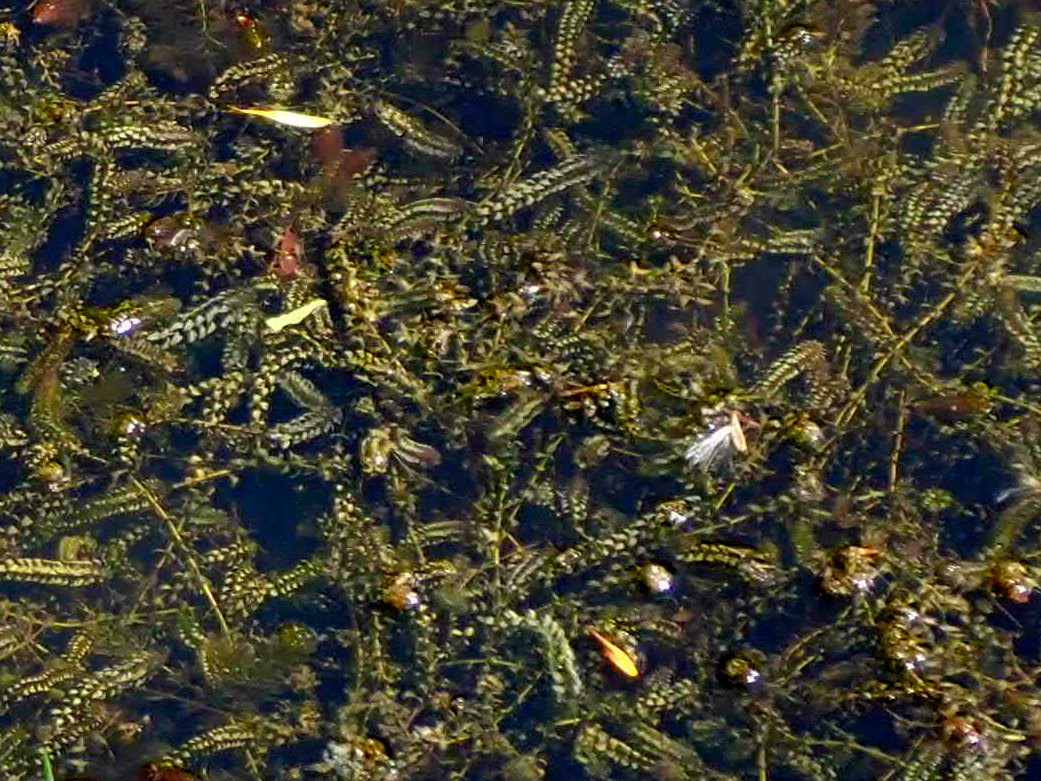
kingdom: Plantae
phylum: Tracheophyta
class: Liliopsida
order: Alismatales
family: Hydrocharitaceae
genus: Elodea
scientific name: Elodea canadensis
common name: Canadian waterweed
